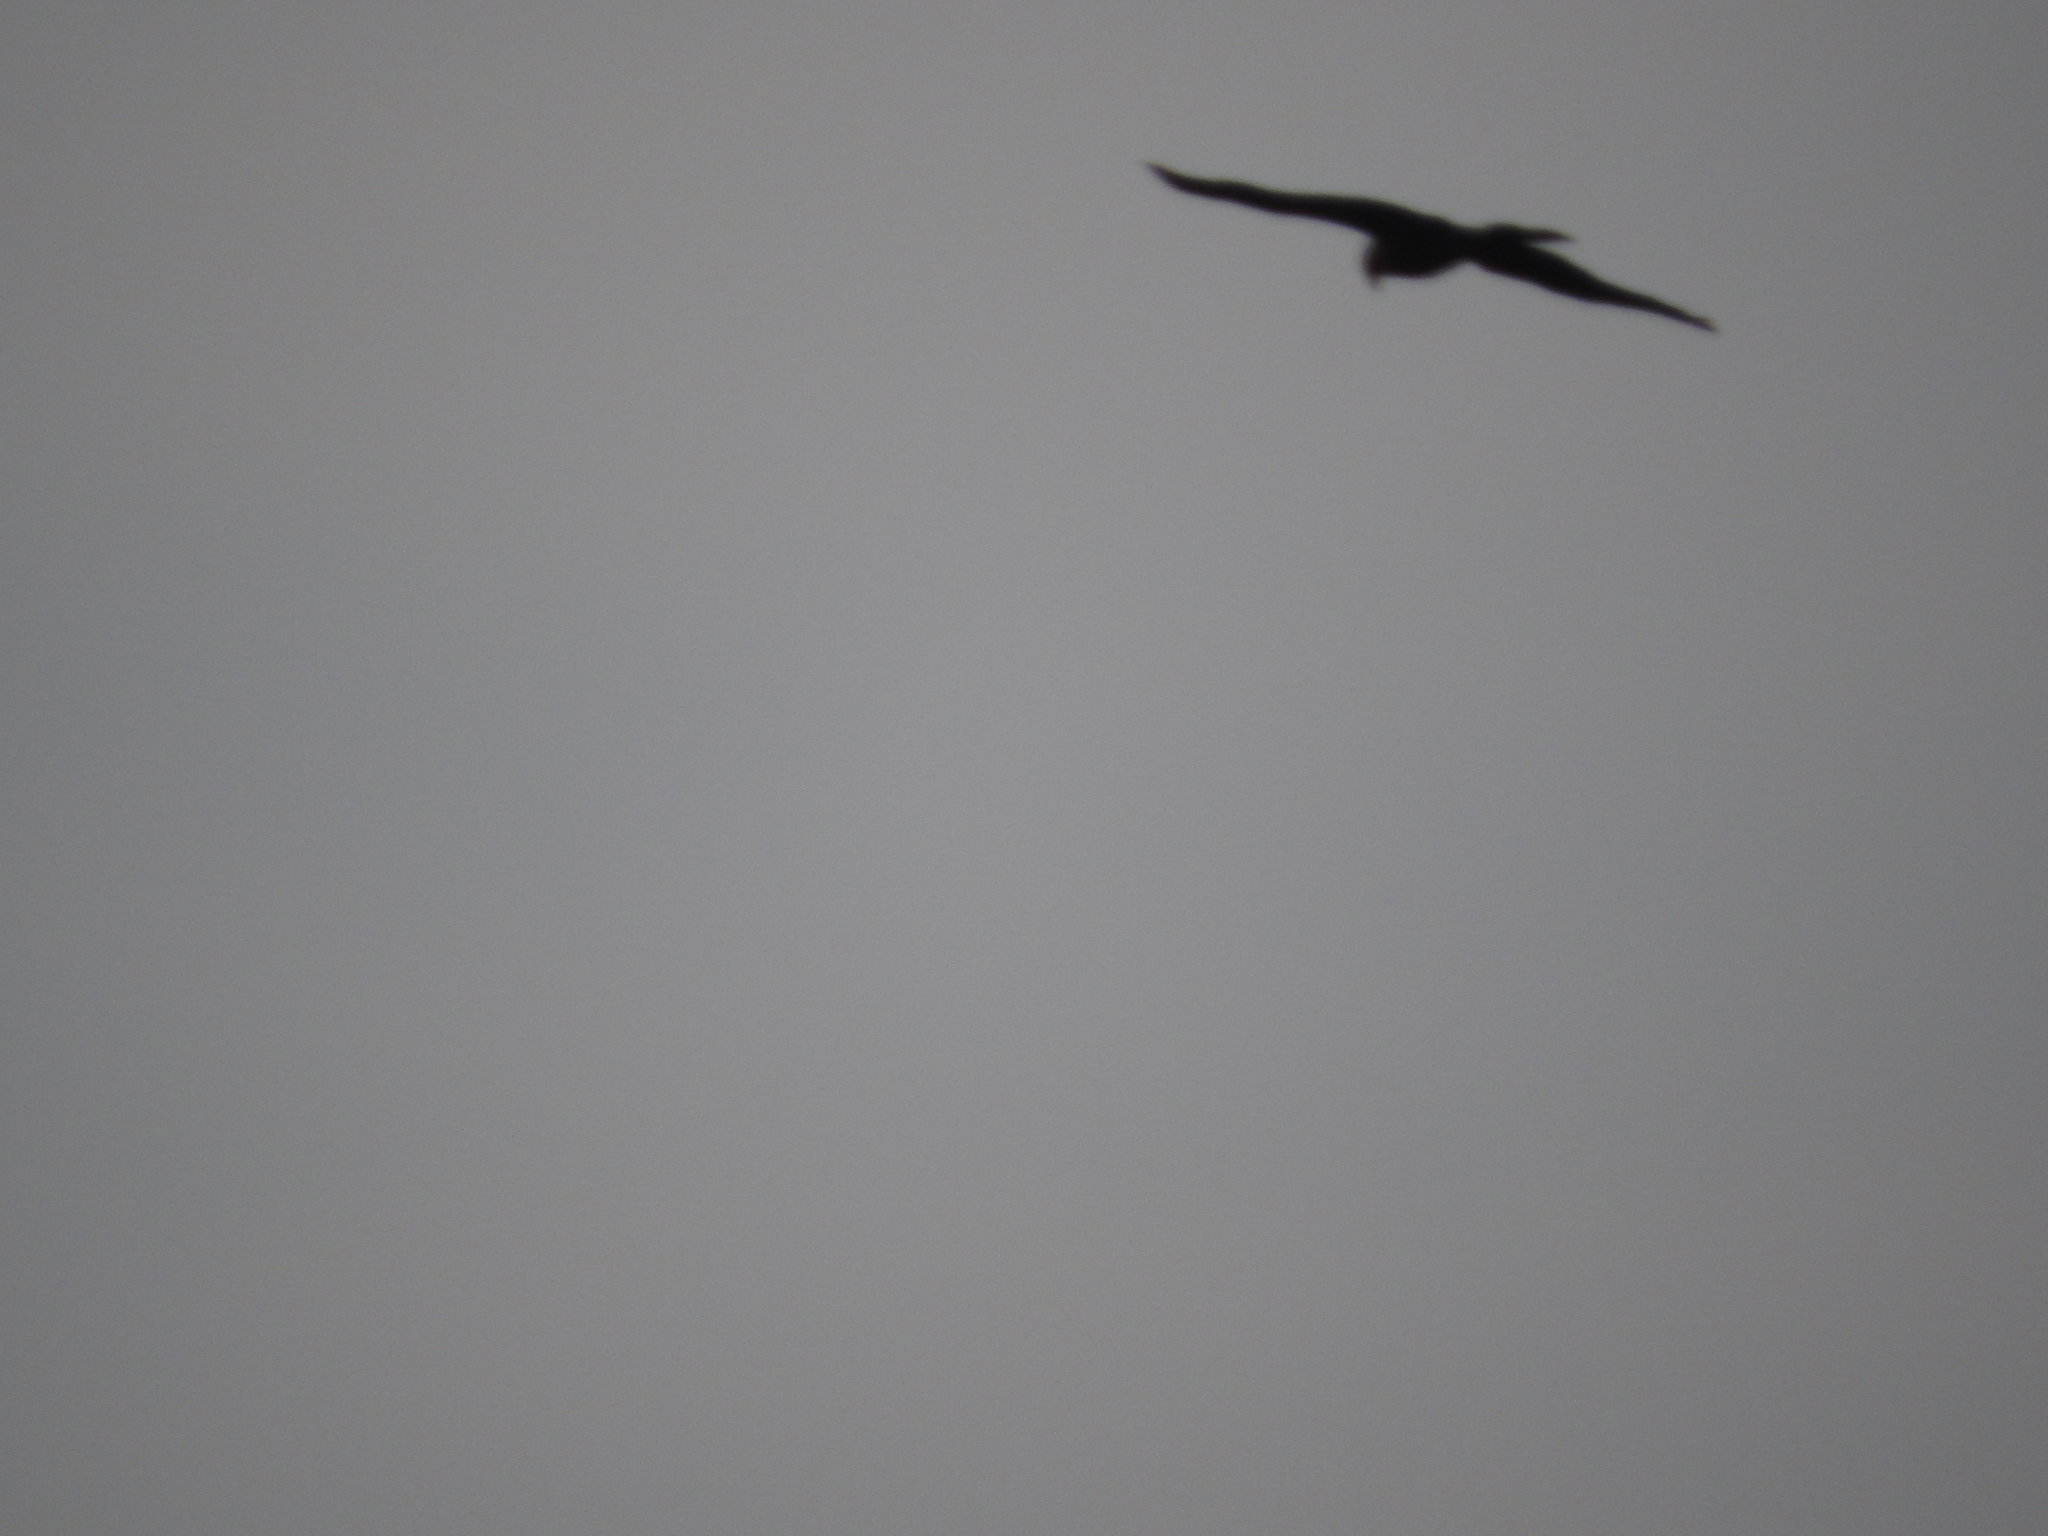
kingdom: Animalia
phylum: Chordata
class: Aves
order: Accipitriformes
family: Accipitridae
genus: Milvus
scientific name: Milvus migrans
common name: Black kite
